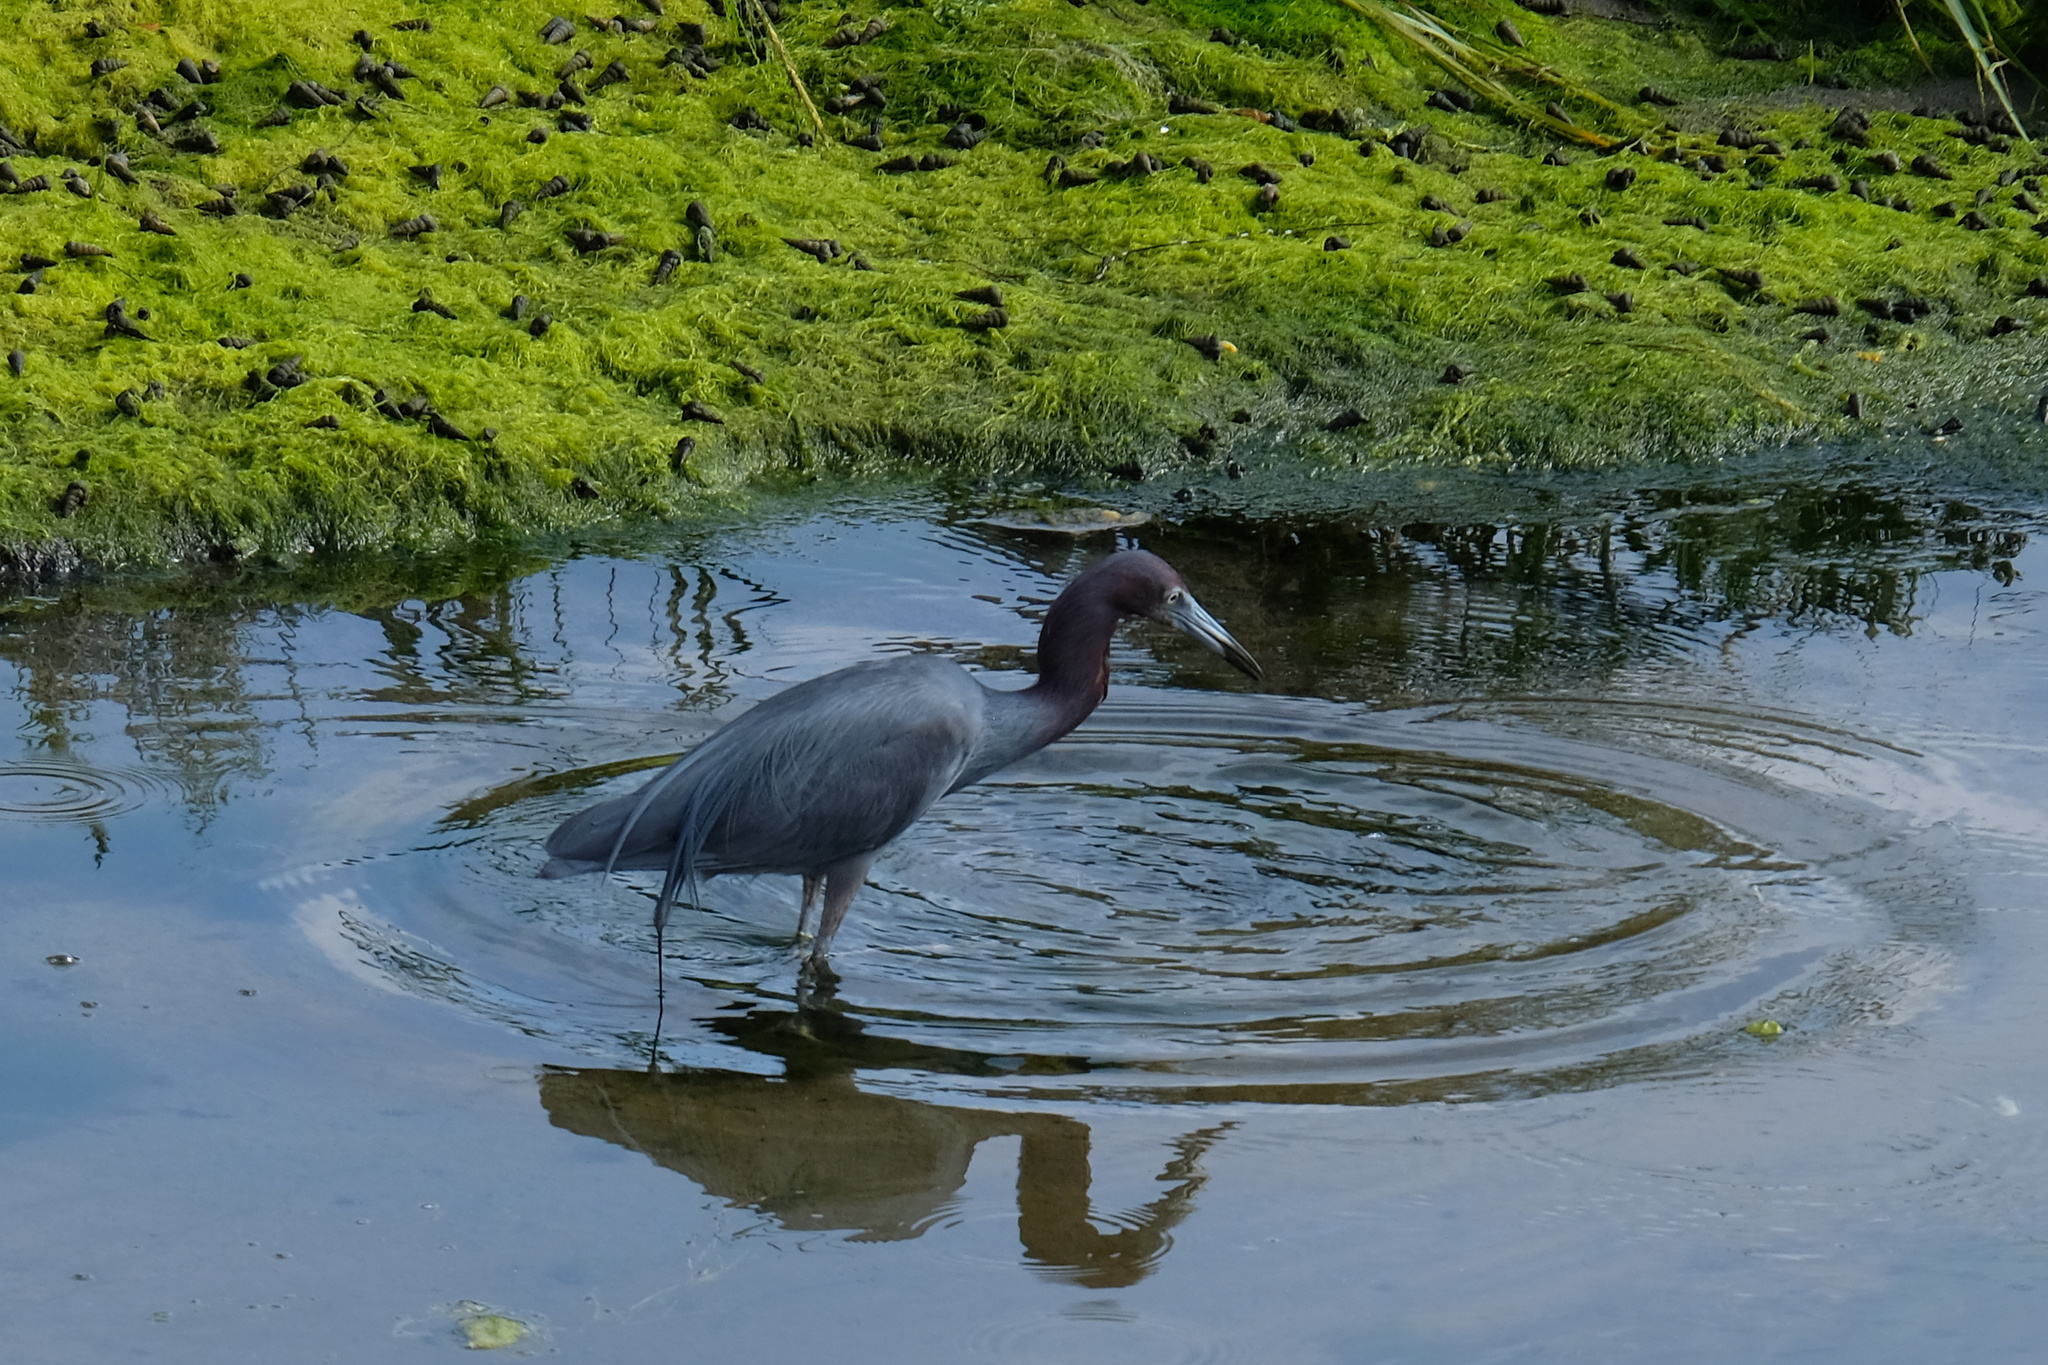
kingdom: Animalia
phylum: Chordata
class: Aves
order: Pelecaniformes
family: Ardeidae
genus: Egretta
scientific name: Egretta caerulea
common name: Little blue heron
